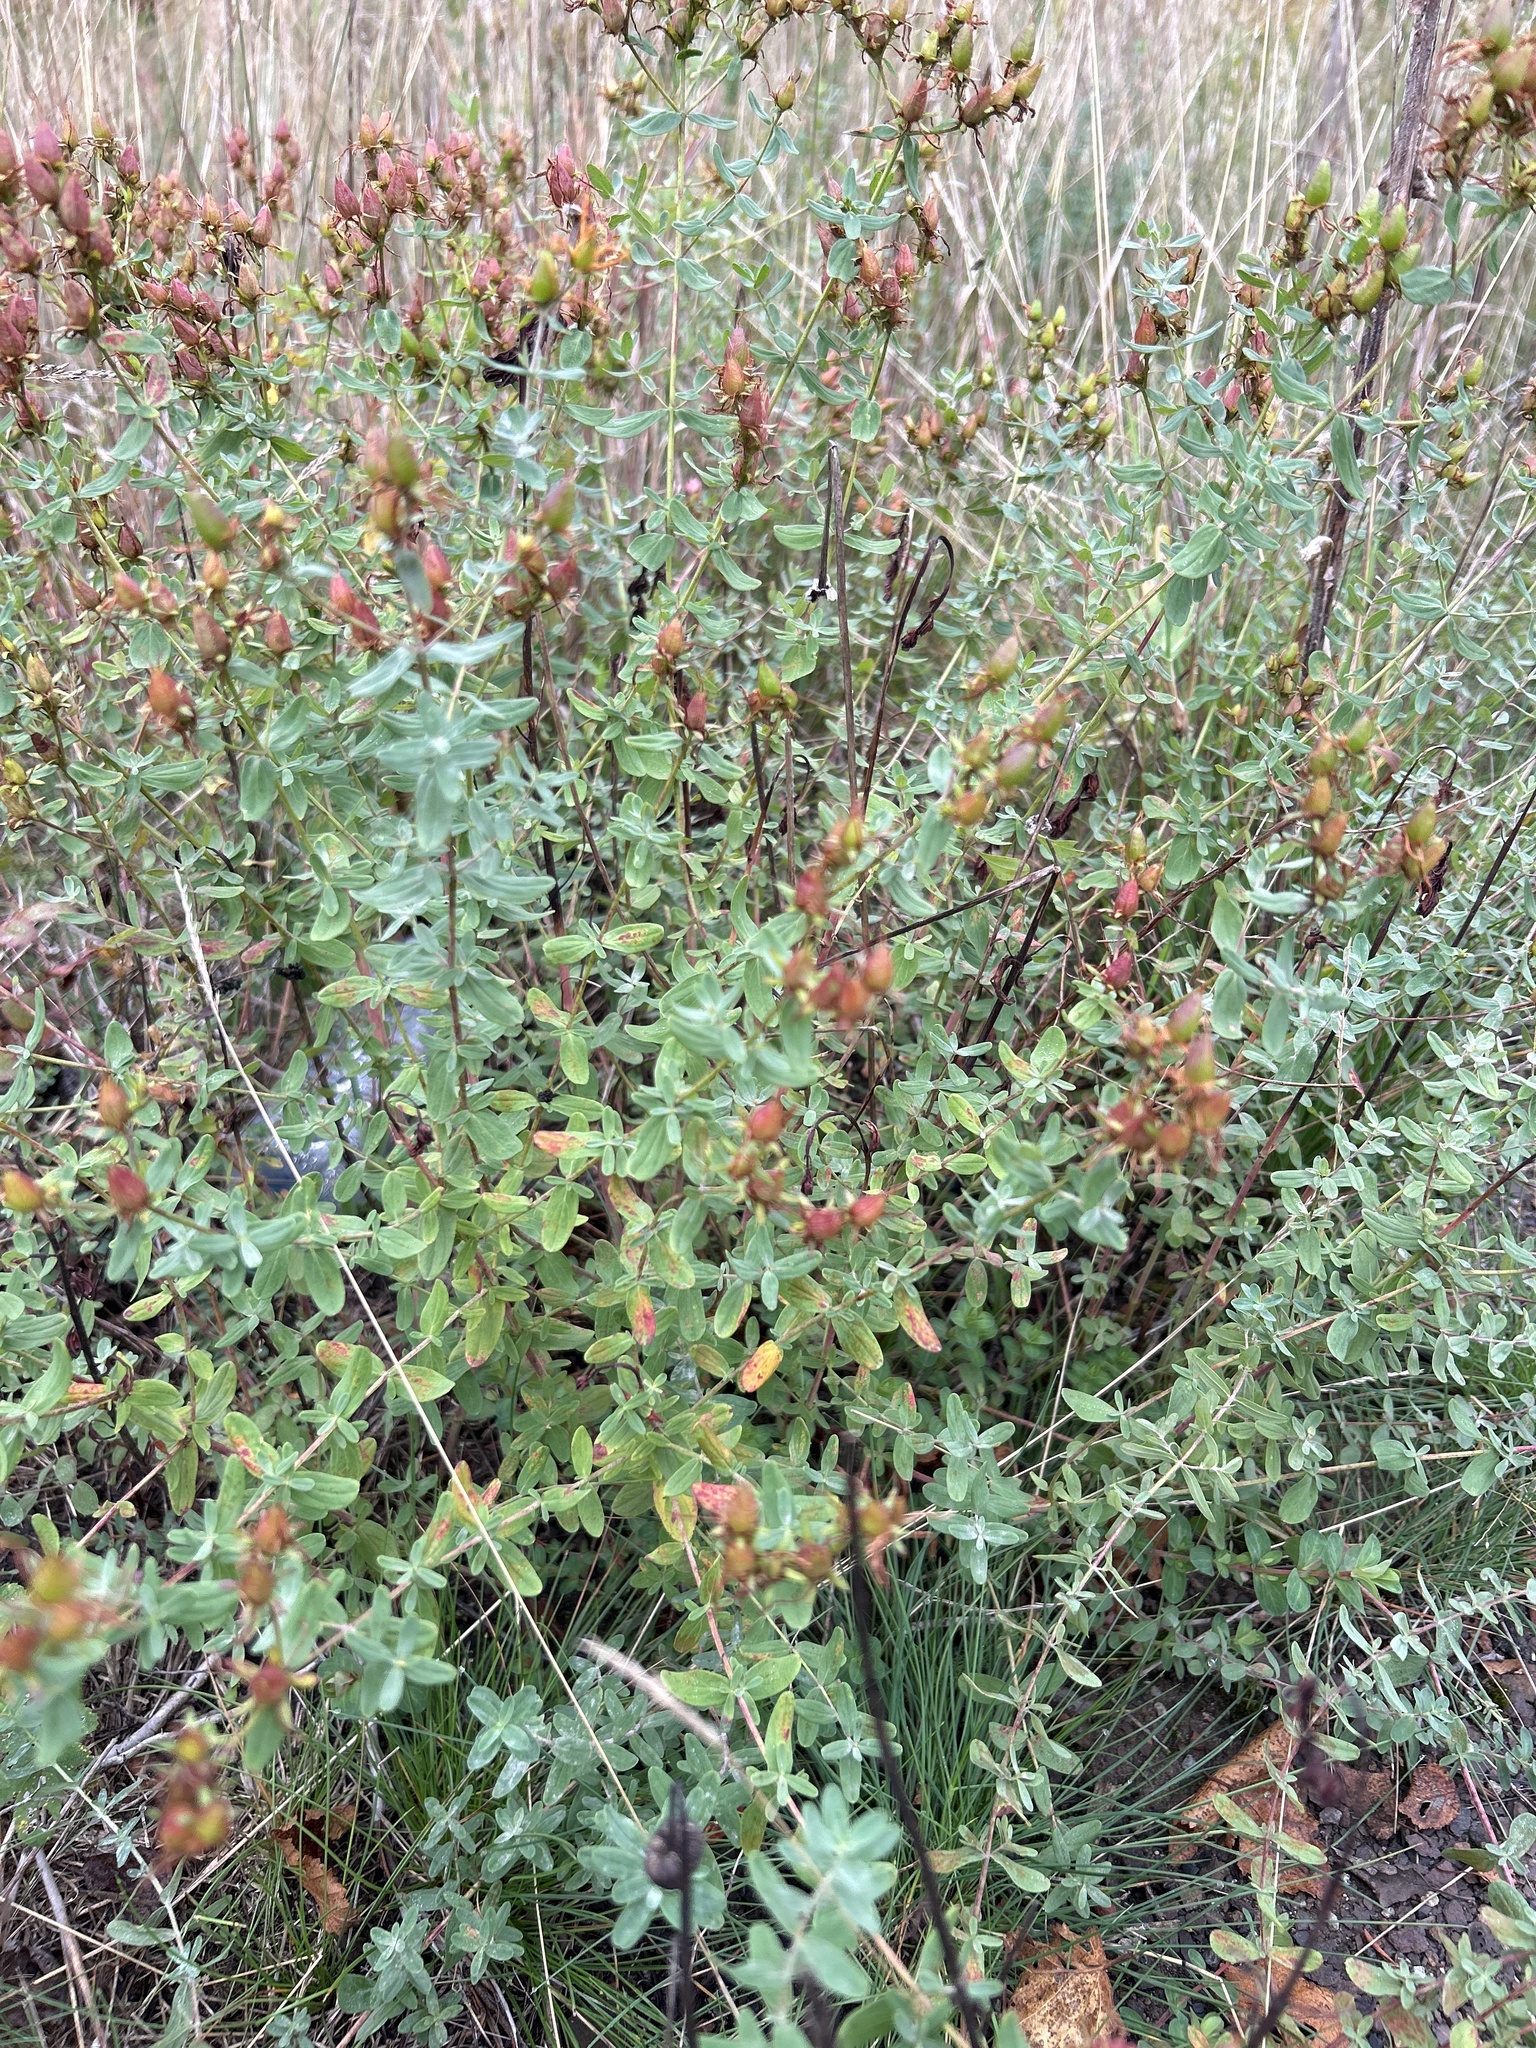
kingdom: Plantae
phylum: Tracheophyta
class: Magnoliopsida
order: Malpighiales
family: Hypericaceae
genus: Hypericum
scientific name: Hypericum perforatum
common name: Common st. johnswort
